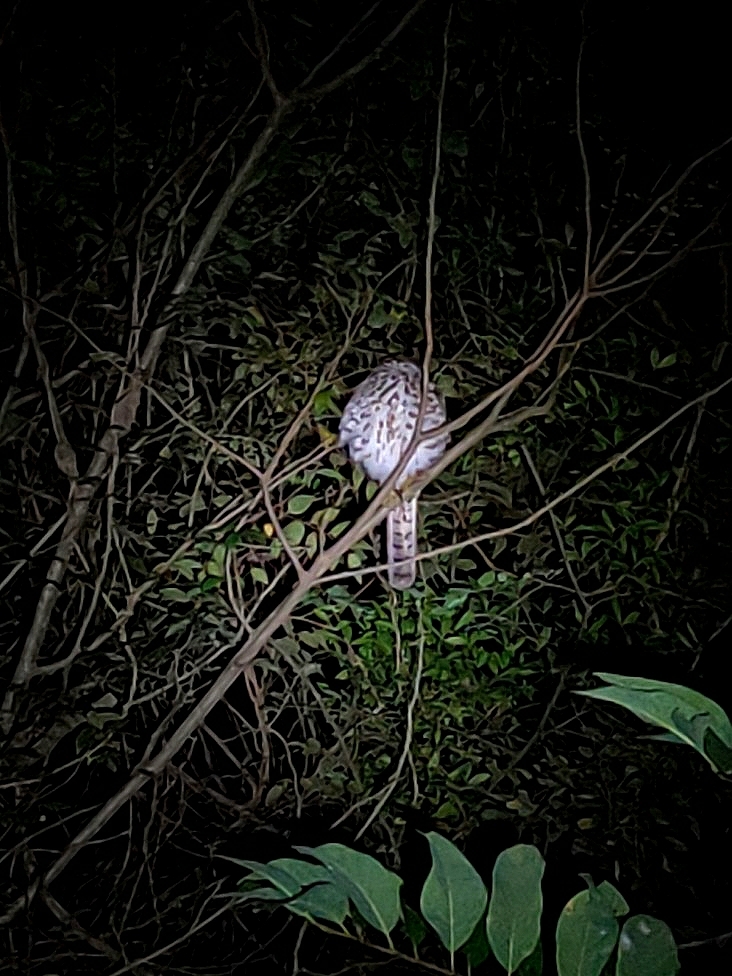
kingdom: Animalia
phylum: Chordata
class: Aves
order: Accipitriformes
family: Accipitridae
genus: Accipiter
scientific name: Accipiter badius
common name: Shikra
